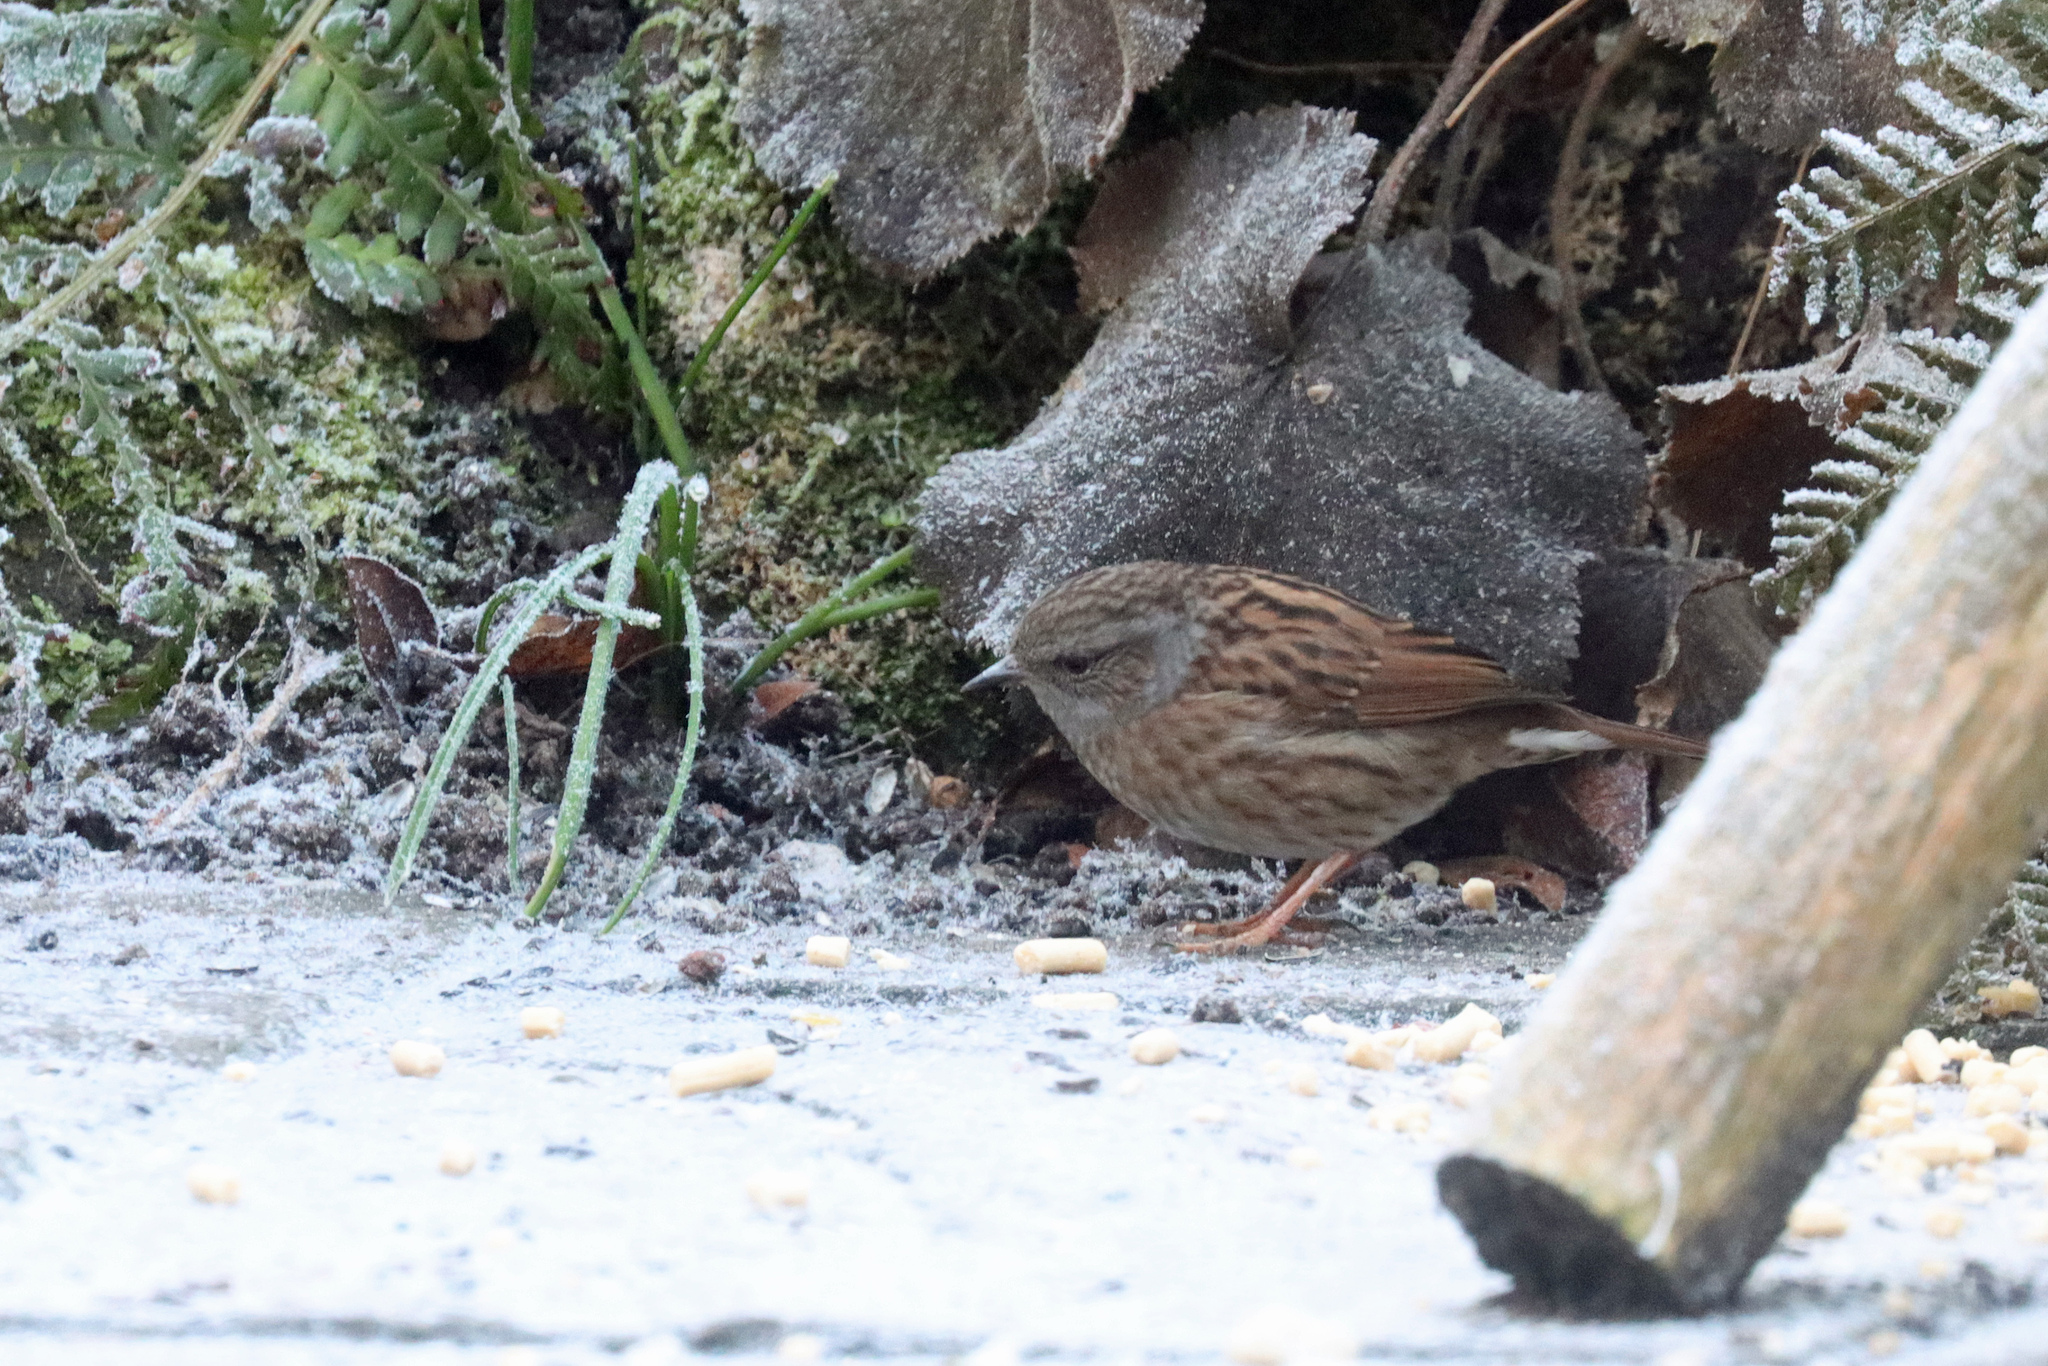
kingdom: Animalia
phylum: Chordata
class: Aves
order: Passeriformes
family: Prunellidae
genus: Prunella
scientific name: Prunella modularis
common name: Dunnock
